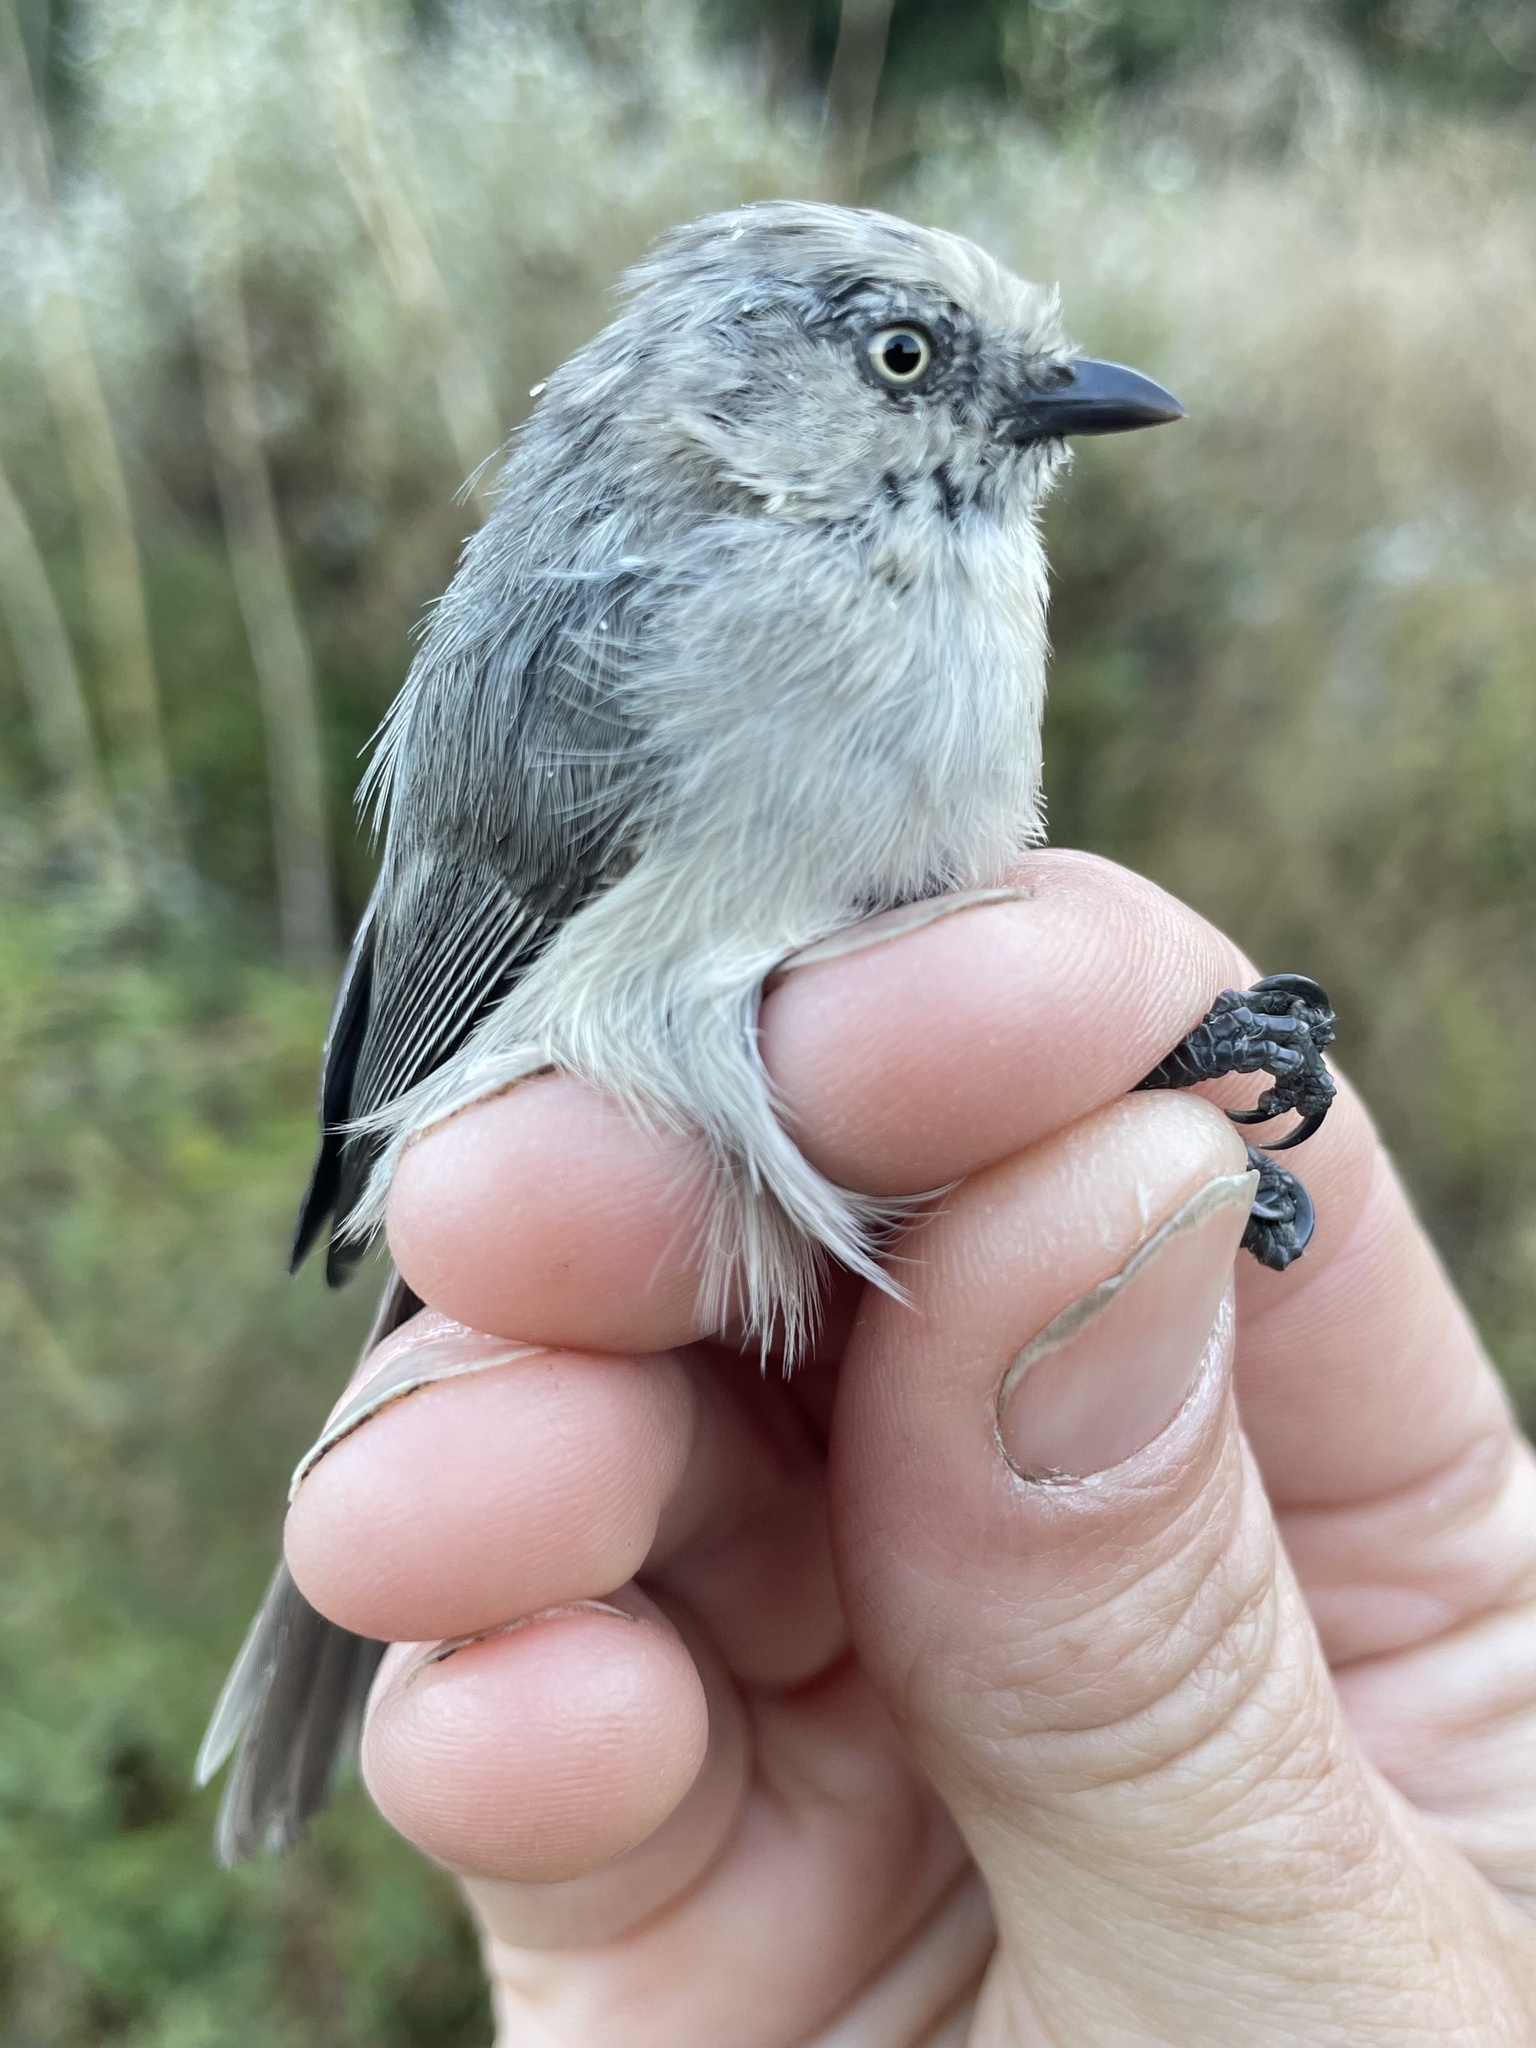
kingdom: Animalia
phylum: Chordata
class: Aves
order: Passeriformes
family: Aegithalidae
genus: Psaltriparus
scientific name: Psaltriparus minimus
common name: American bushtit
